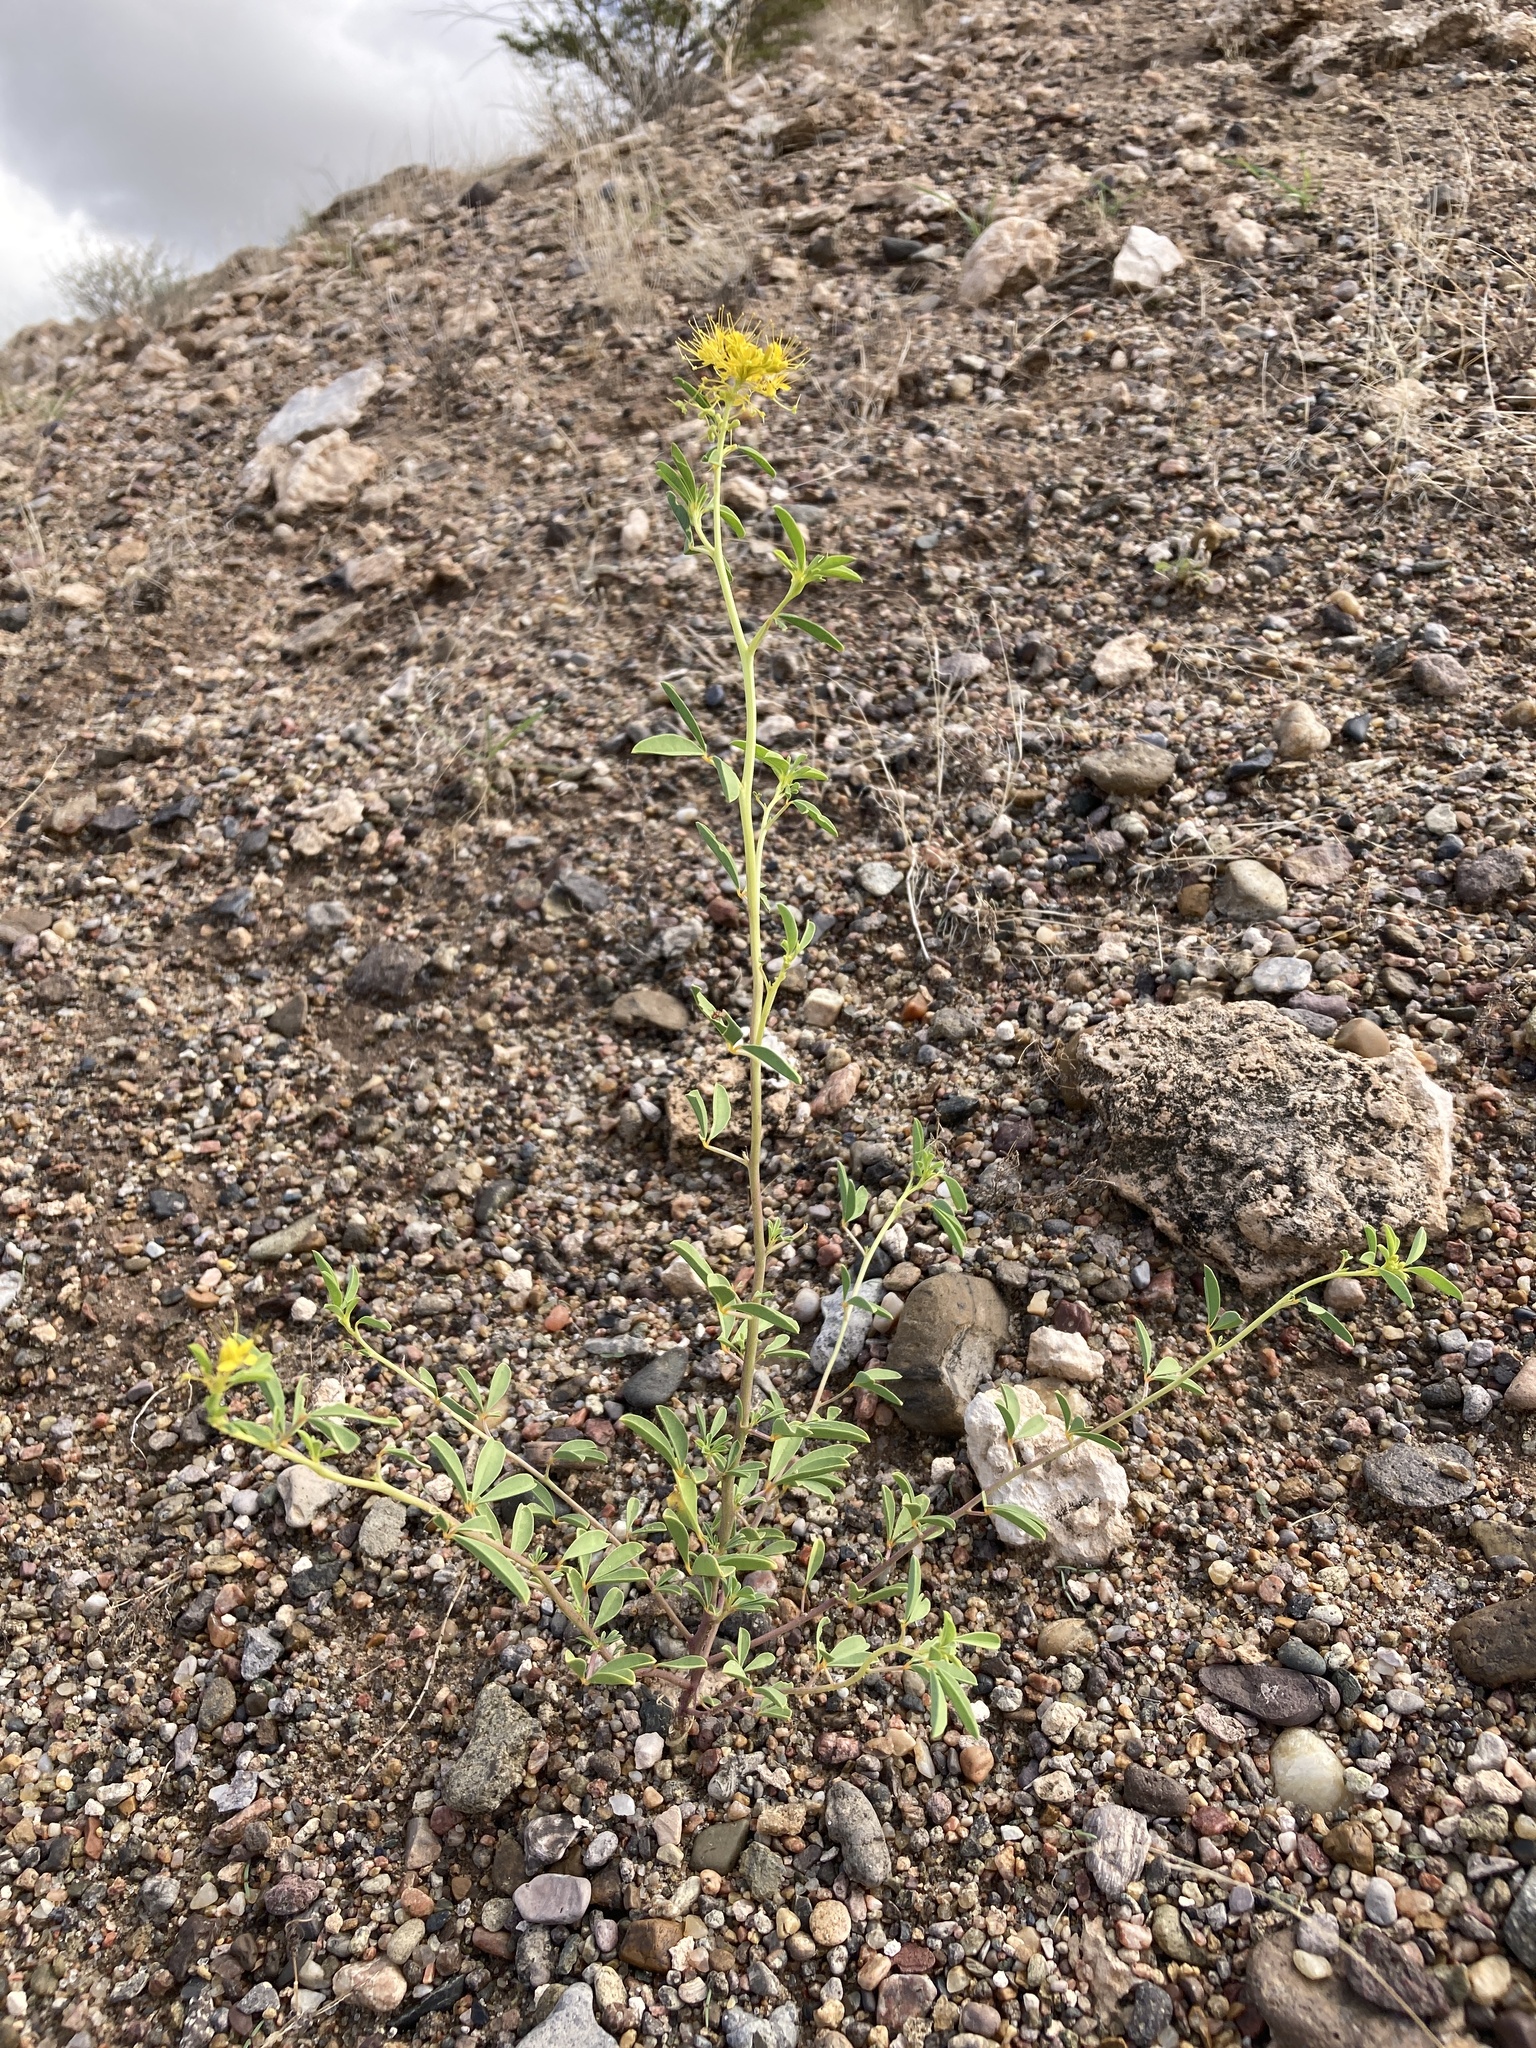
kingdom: Plantae
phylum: Tracheophyta
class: Magnoliopsida
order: Brassicales
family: Cleomaceae
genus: Cleomella
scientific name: Cleomella refracta
